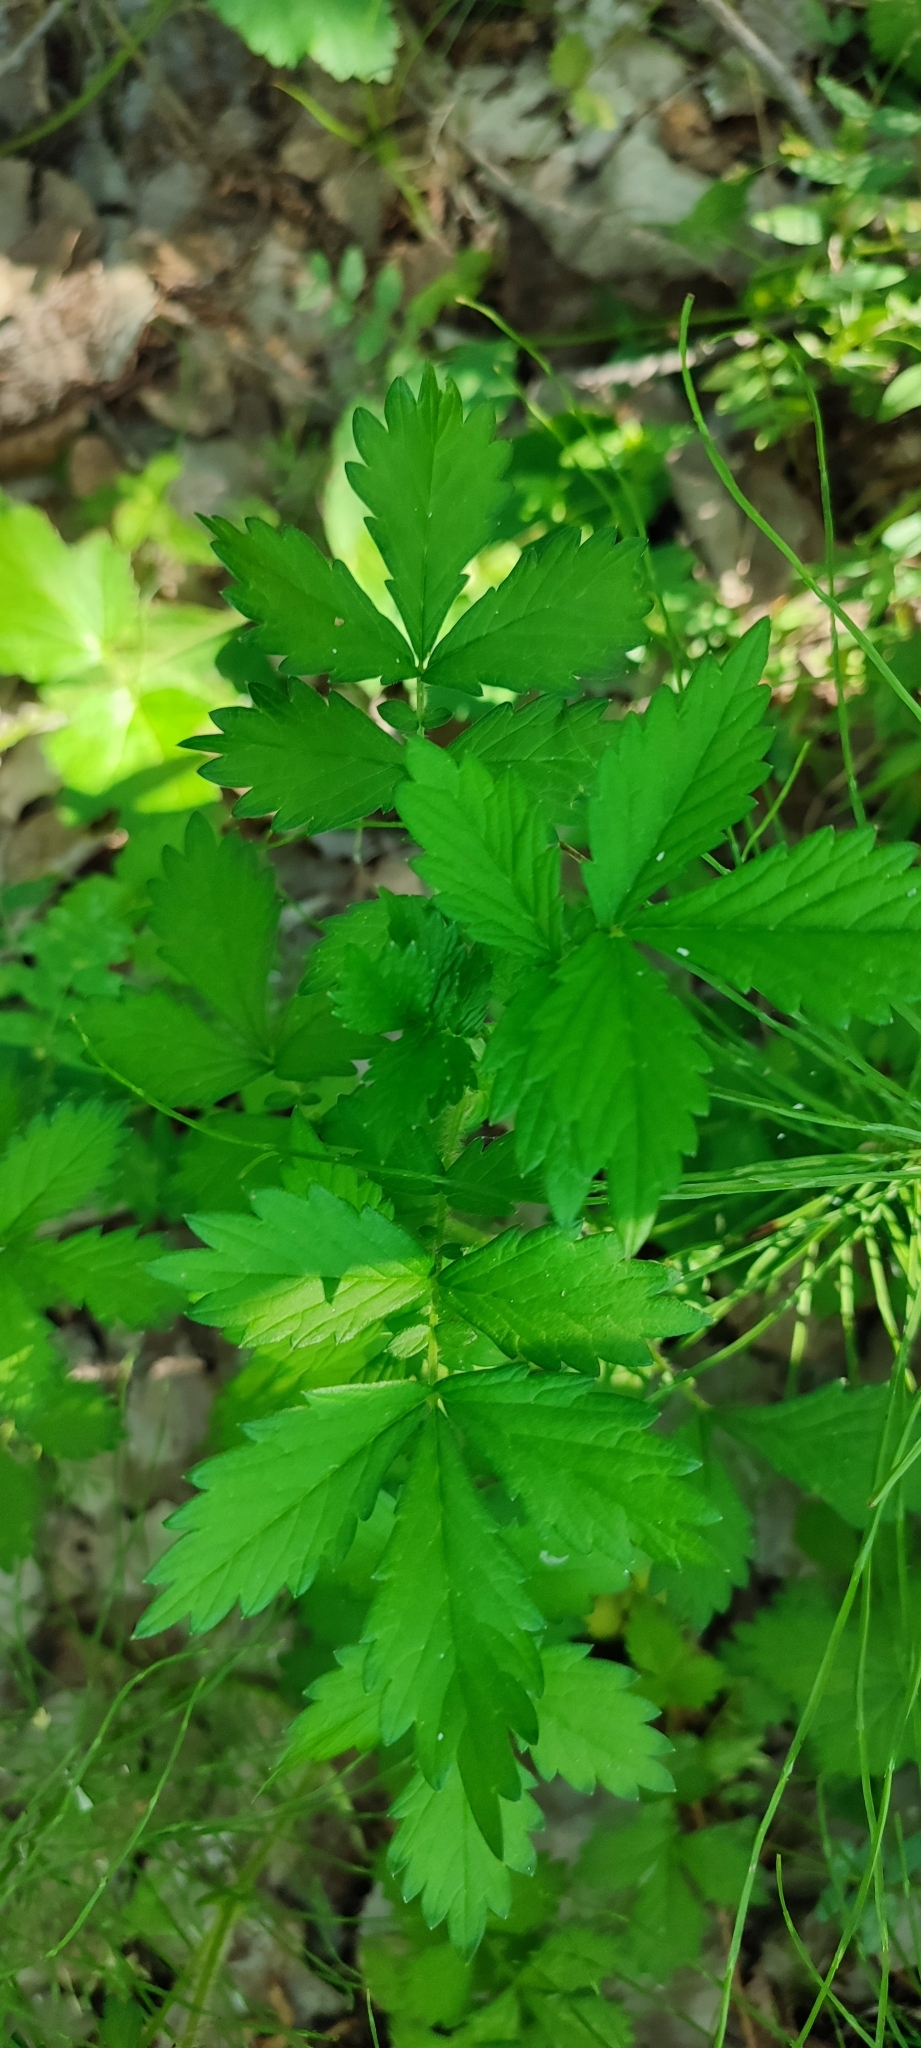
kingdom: Plantae
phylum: Tracheophyta
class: Magnoliopsida
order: Rosales
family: Rosaceae
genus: Agrimonia
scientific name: Agrimonia pilosa
